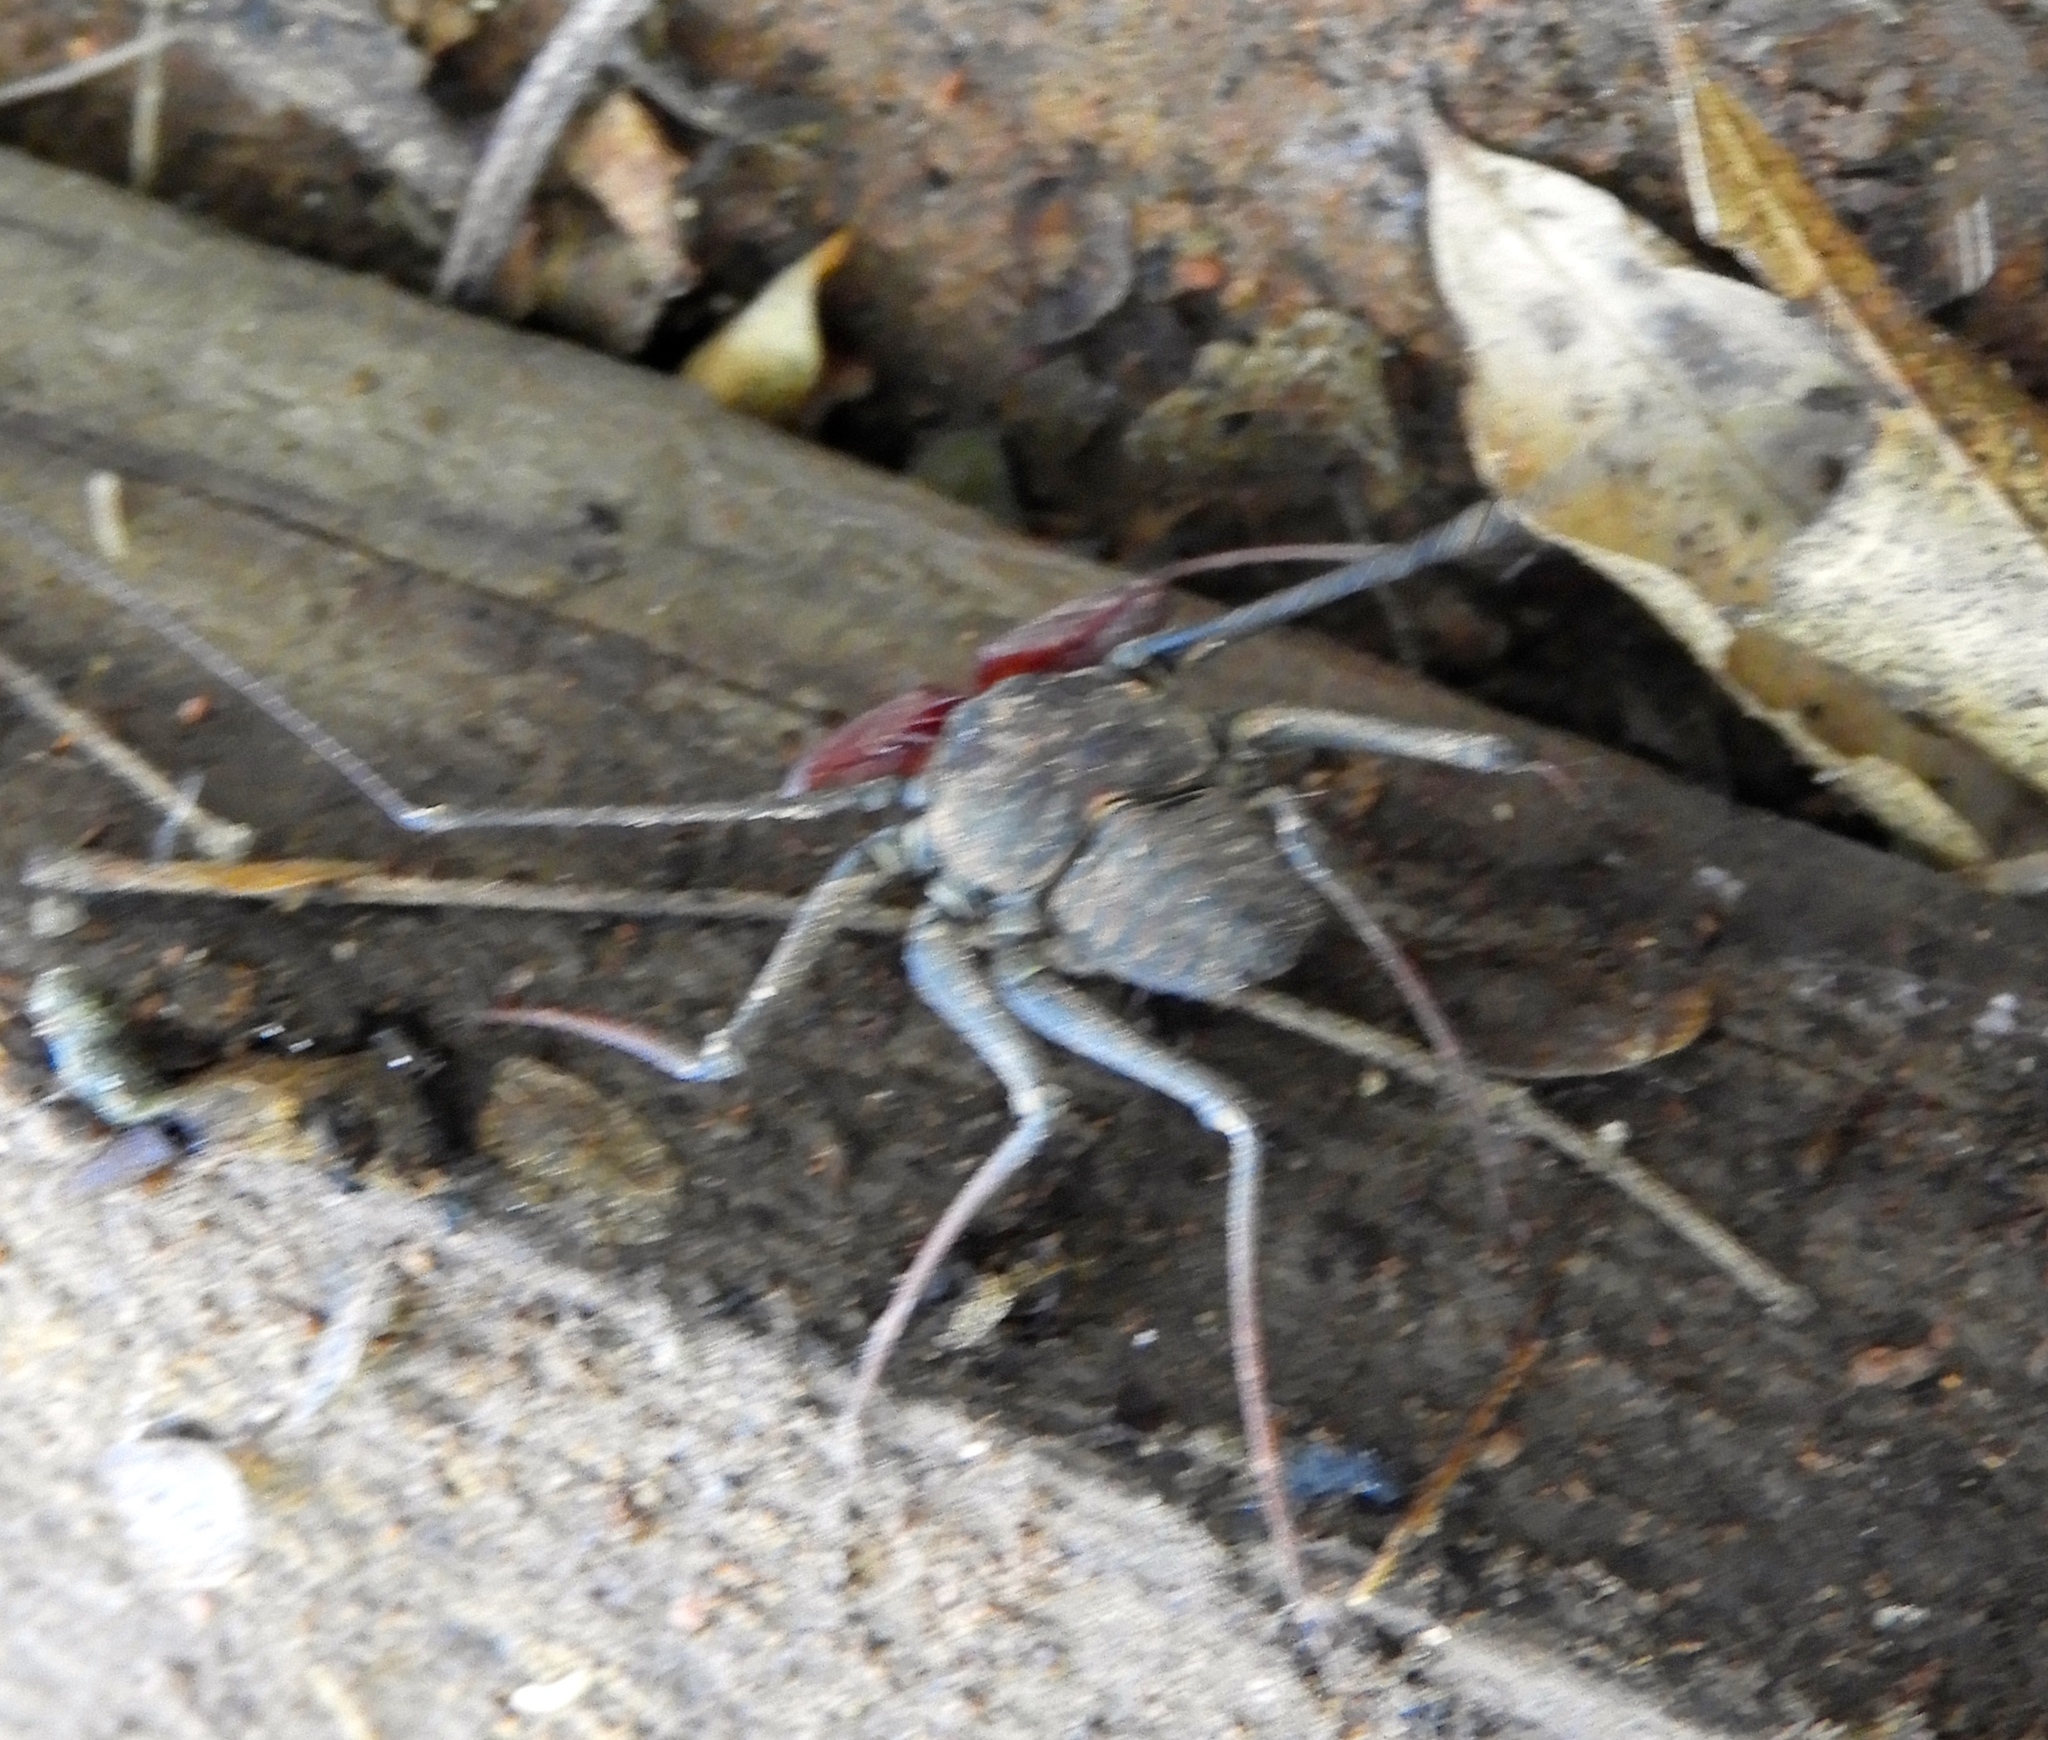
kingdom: Animalia
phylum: Arthropoda
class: Arachnida
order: Amblypygi
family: Phrynidae
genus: Phrynus
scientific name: Phrynus operculatus
